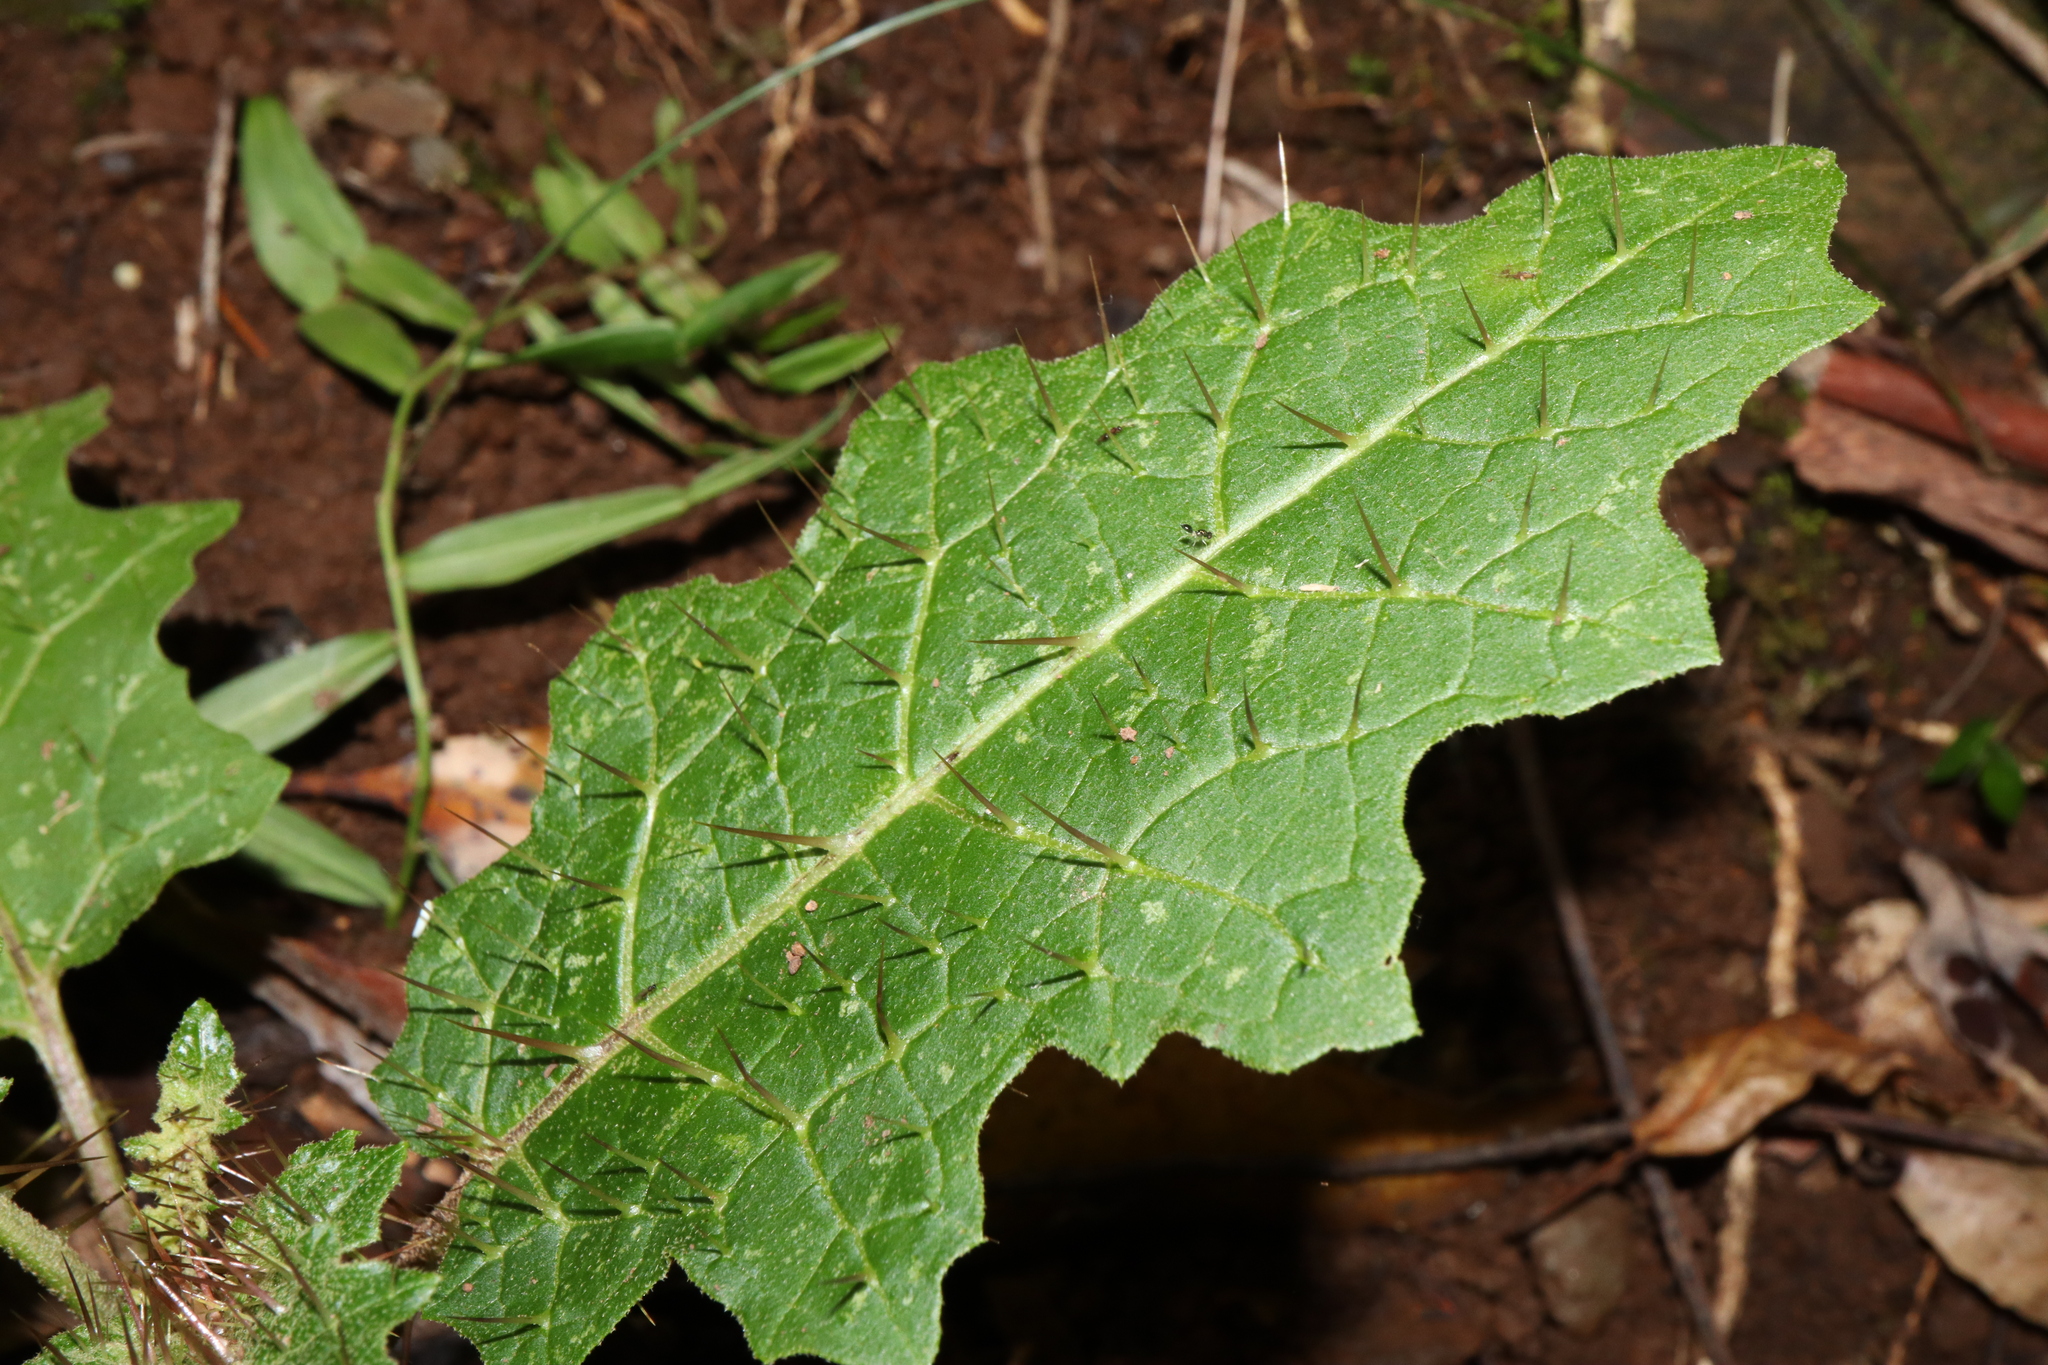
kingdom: Plantae
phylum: Tracheophyta
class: Magnoliopsida
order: Solanales
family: Solanaceae
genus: Solanum
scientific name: Solanum prinophyllum
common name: Forest nightshade
